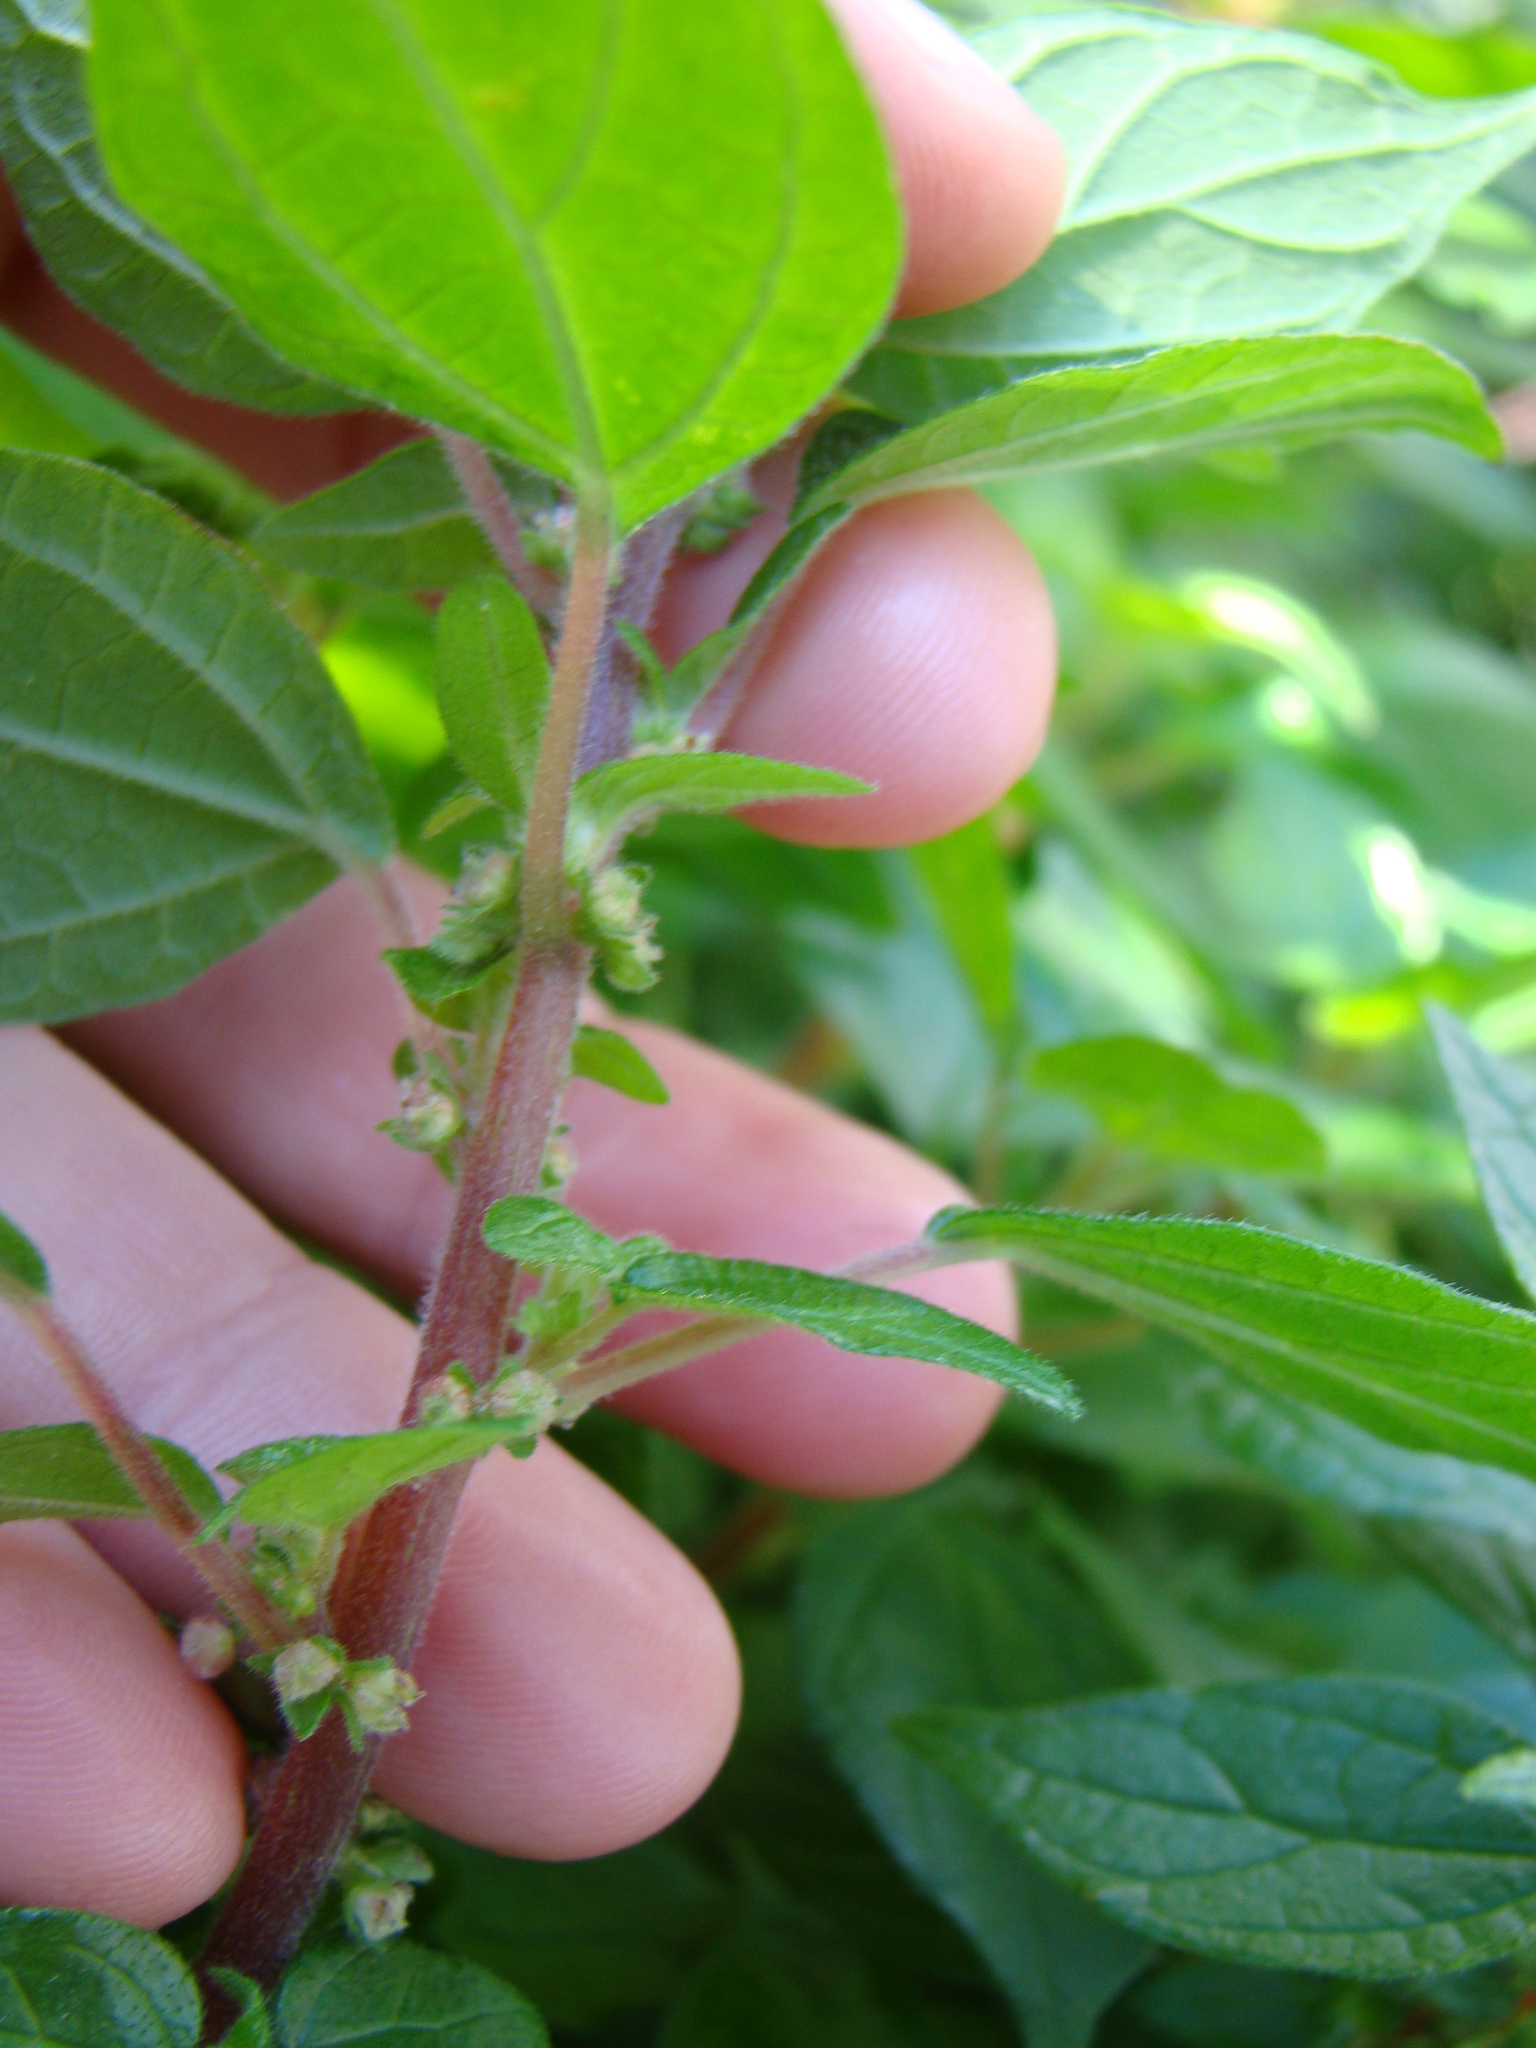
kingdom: Plantae
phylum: Tracheophyta
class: Magnoliopsida
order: Rosales
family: Urticaceae
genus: Parietaria
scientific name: Parietaria judaica
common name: Pellitory-of-the-wall
